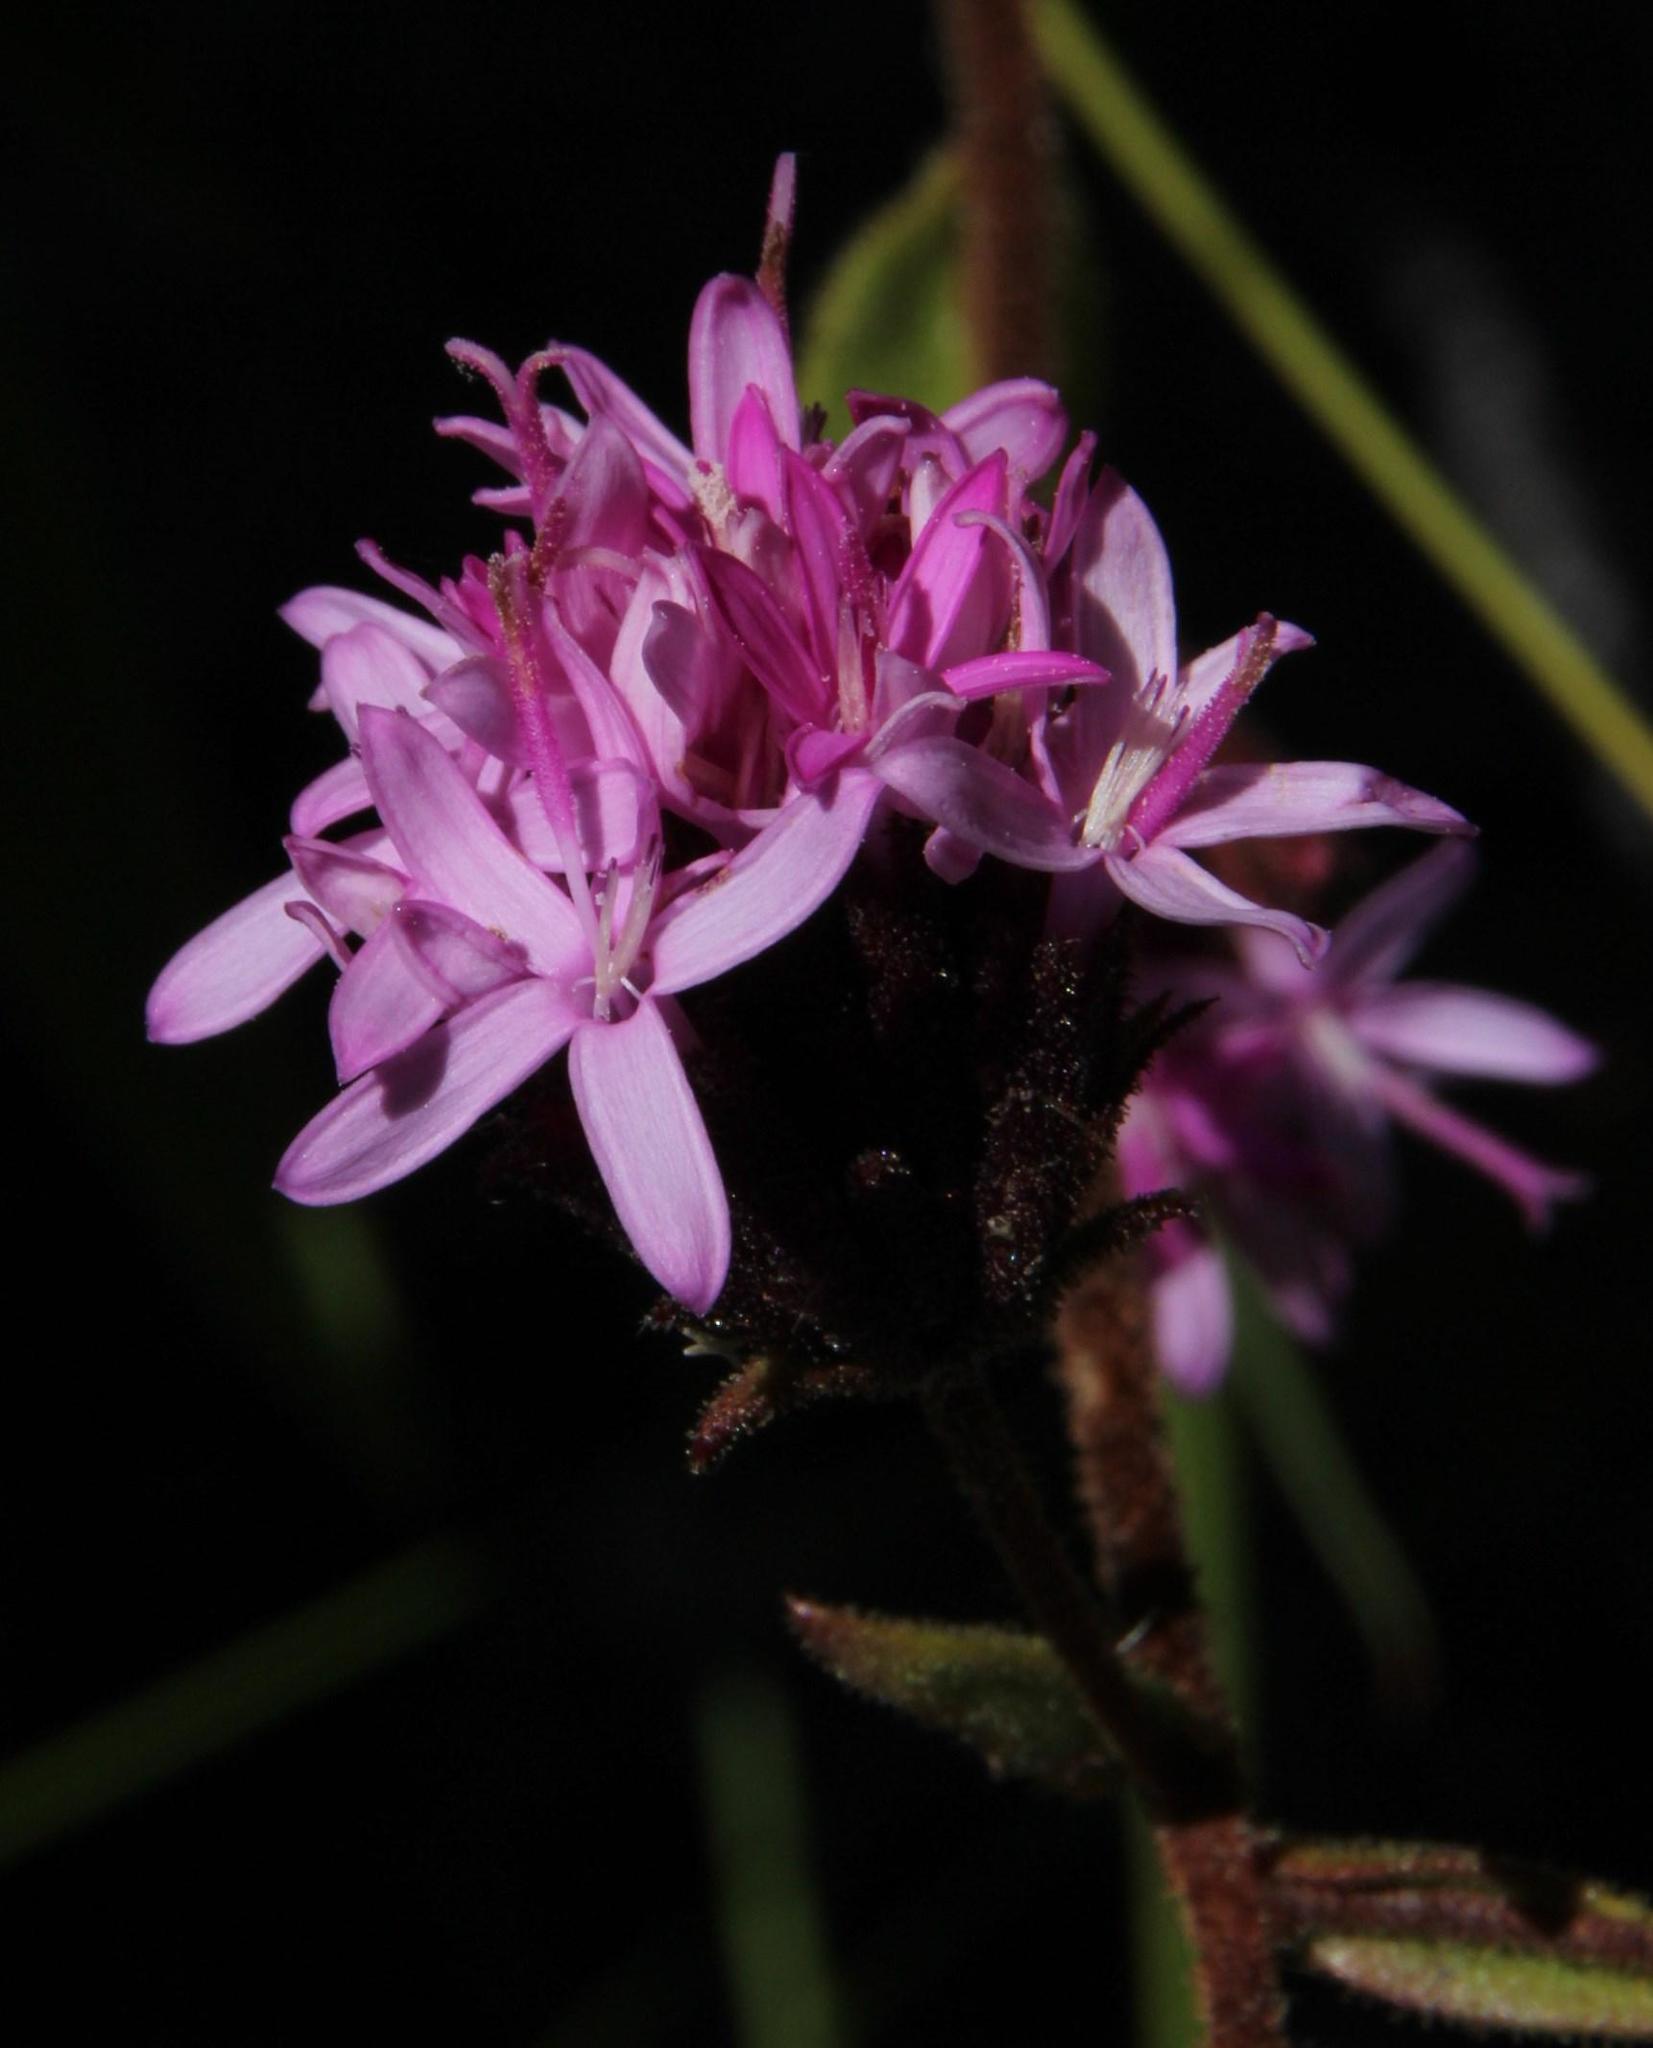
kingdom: Plantae
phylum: Tracheophyta
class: Magnoliopsida
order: Asterales
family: Asteraceae
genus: Corymbium
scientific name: Corymbium congestum
